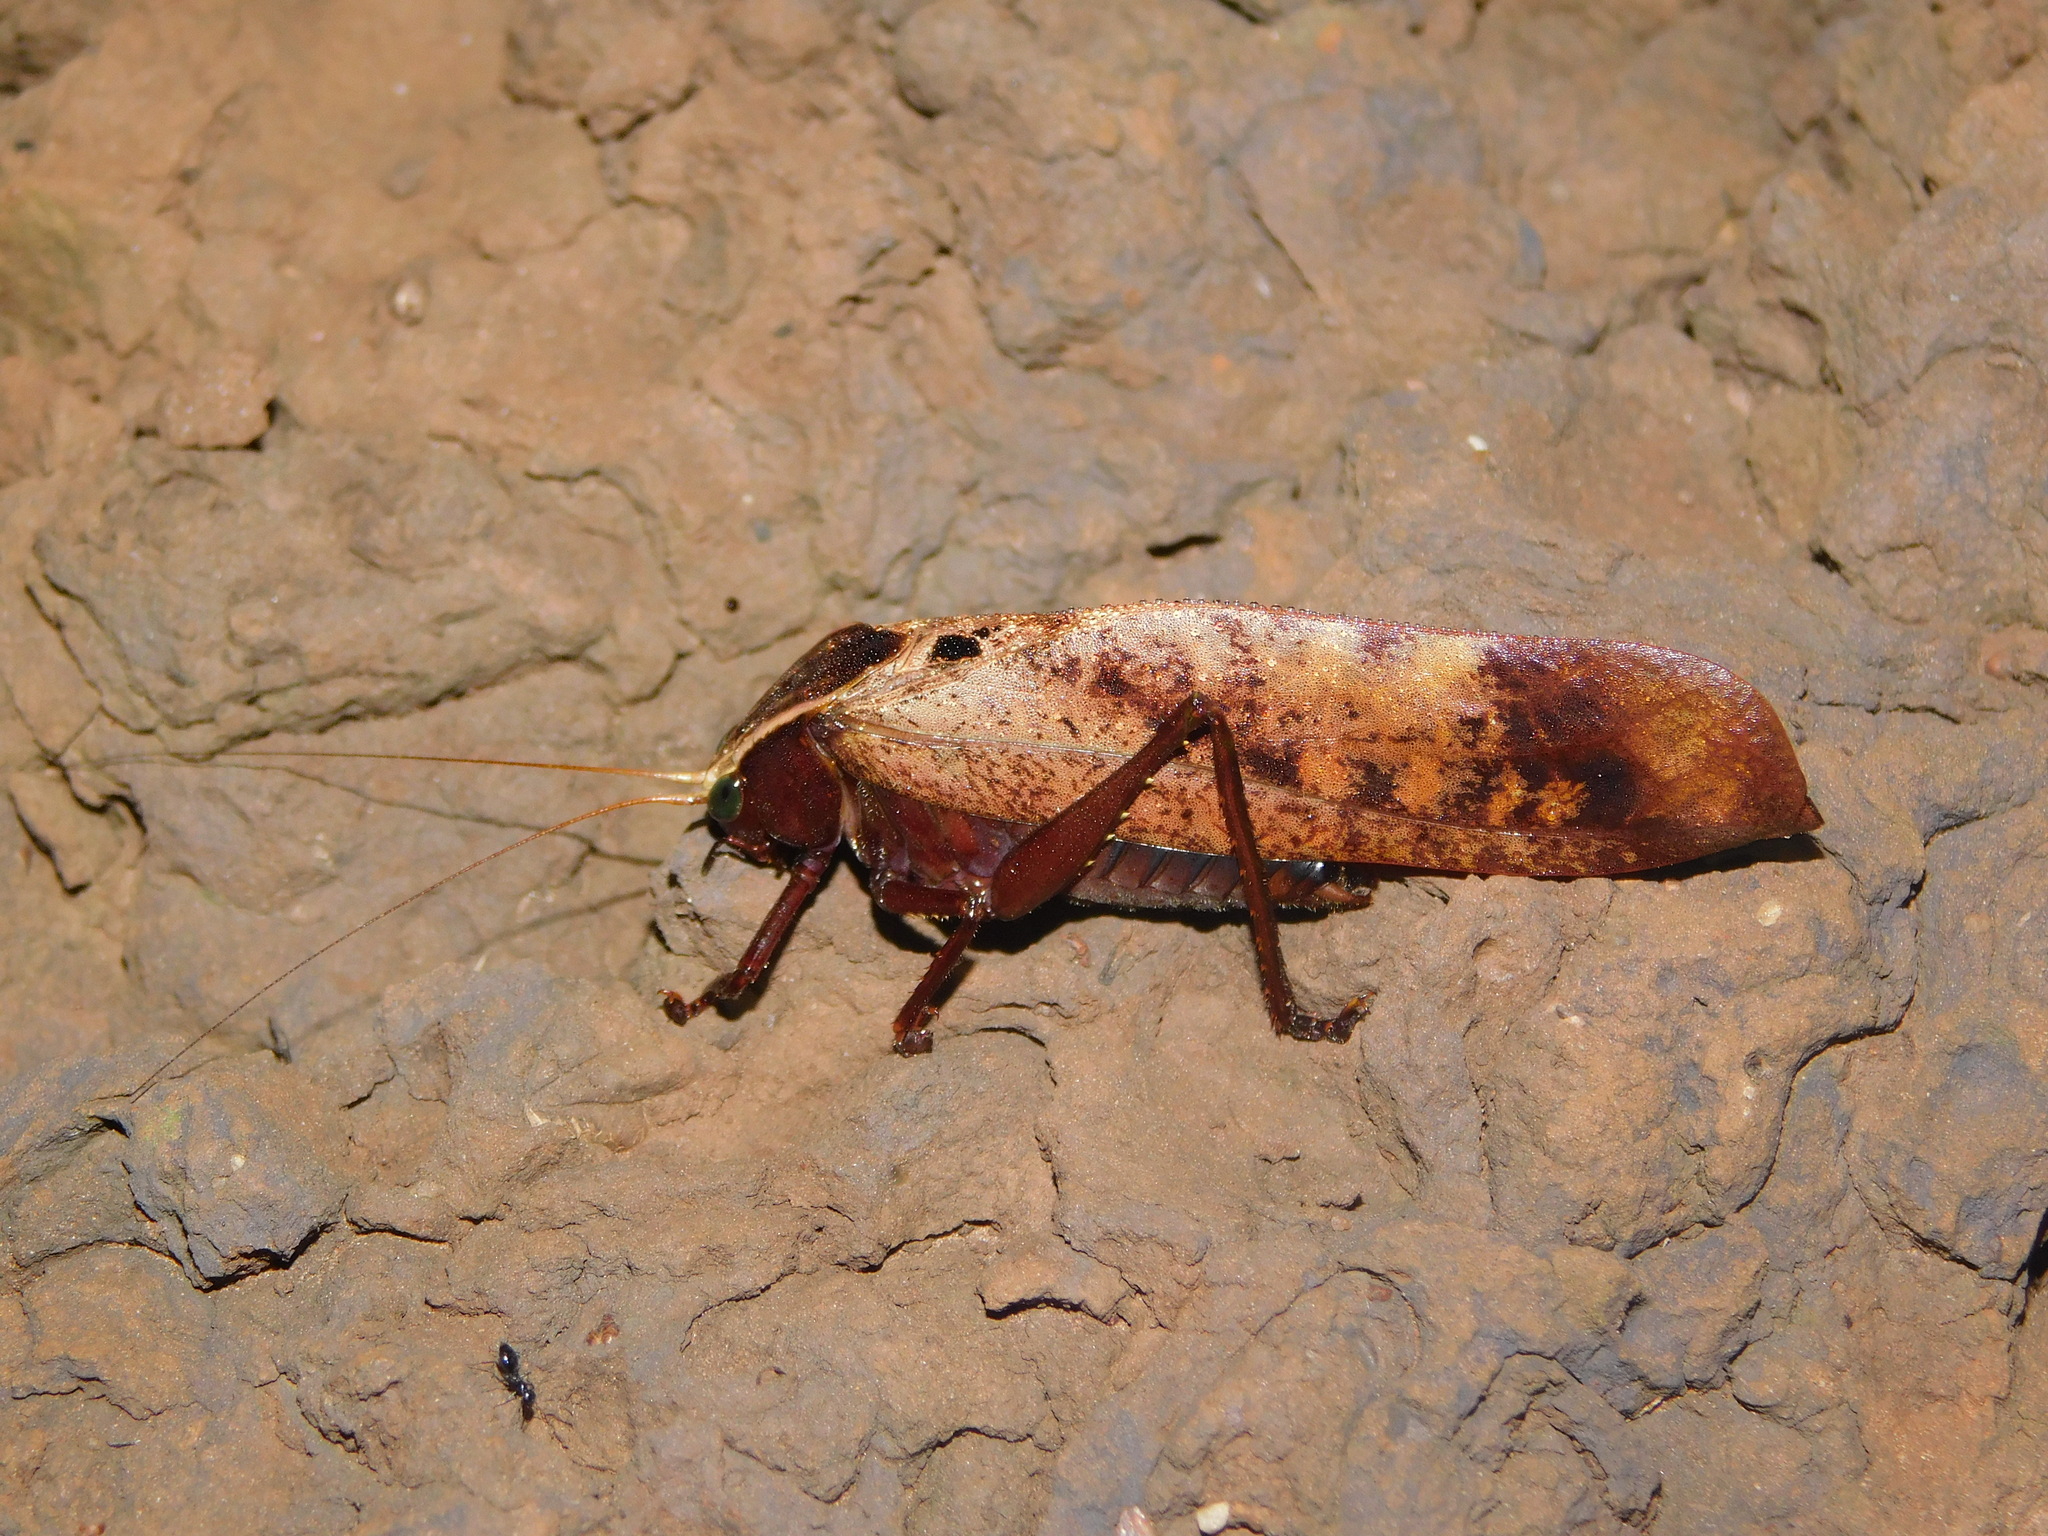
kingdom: Animalia
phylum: Arthropoda
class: Insecta
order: Orthoptera
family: Tettigoniidae
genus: Enochletica
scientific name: Enochletica ostentatrix
